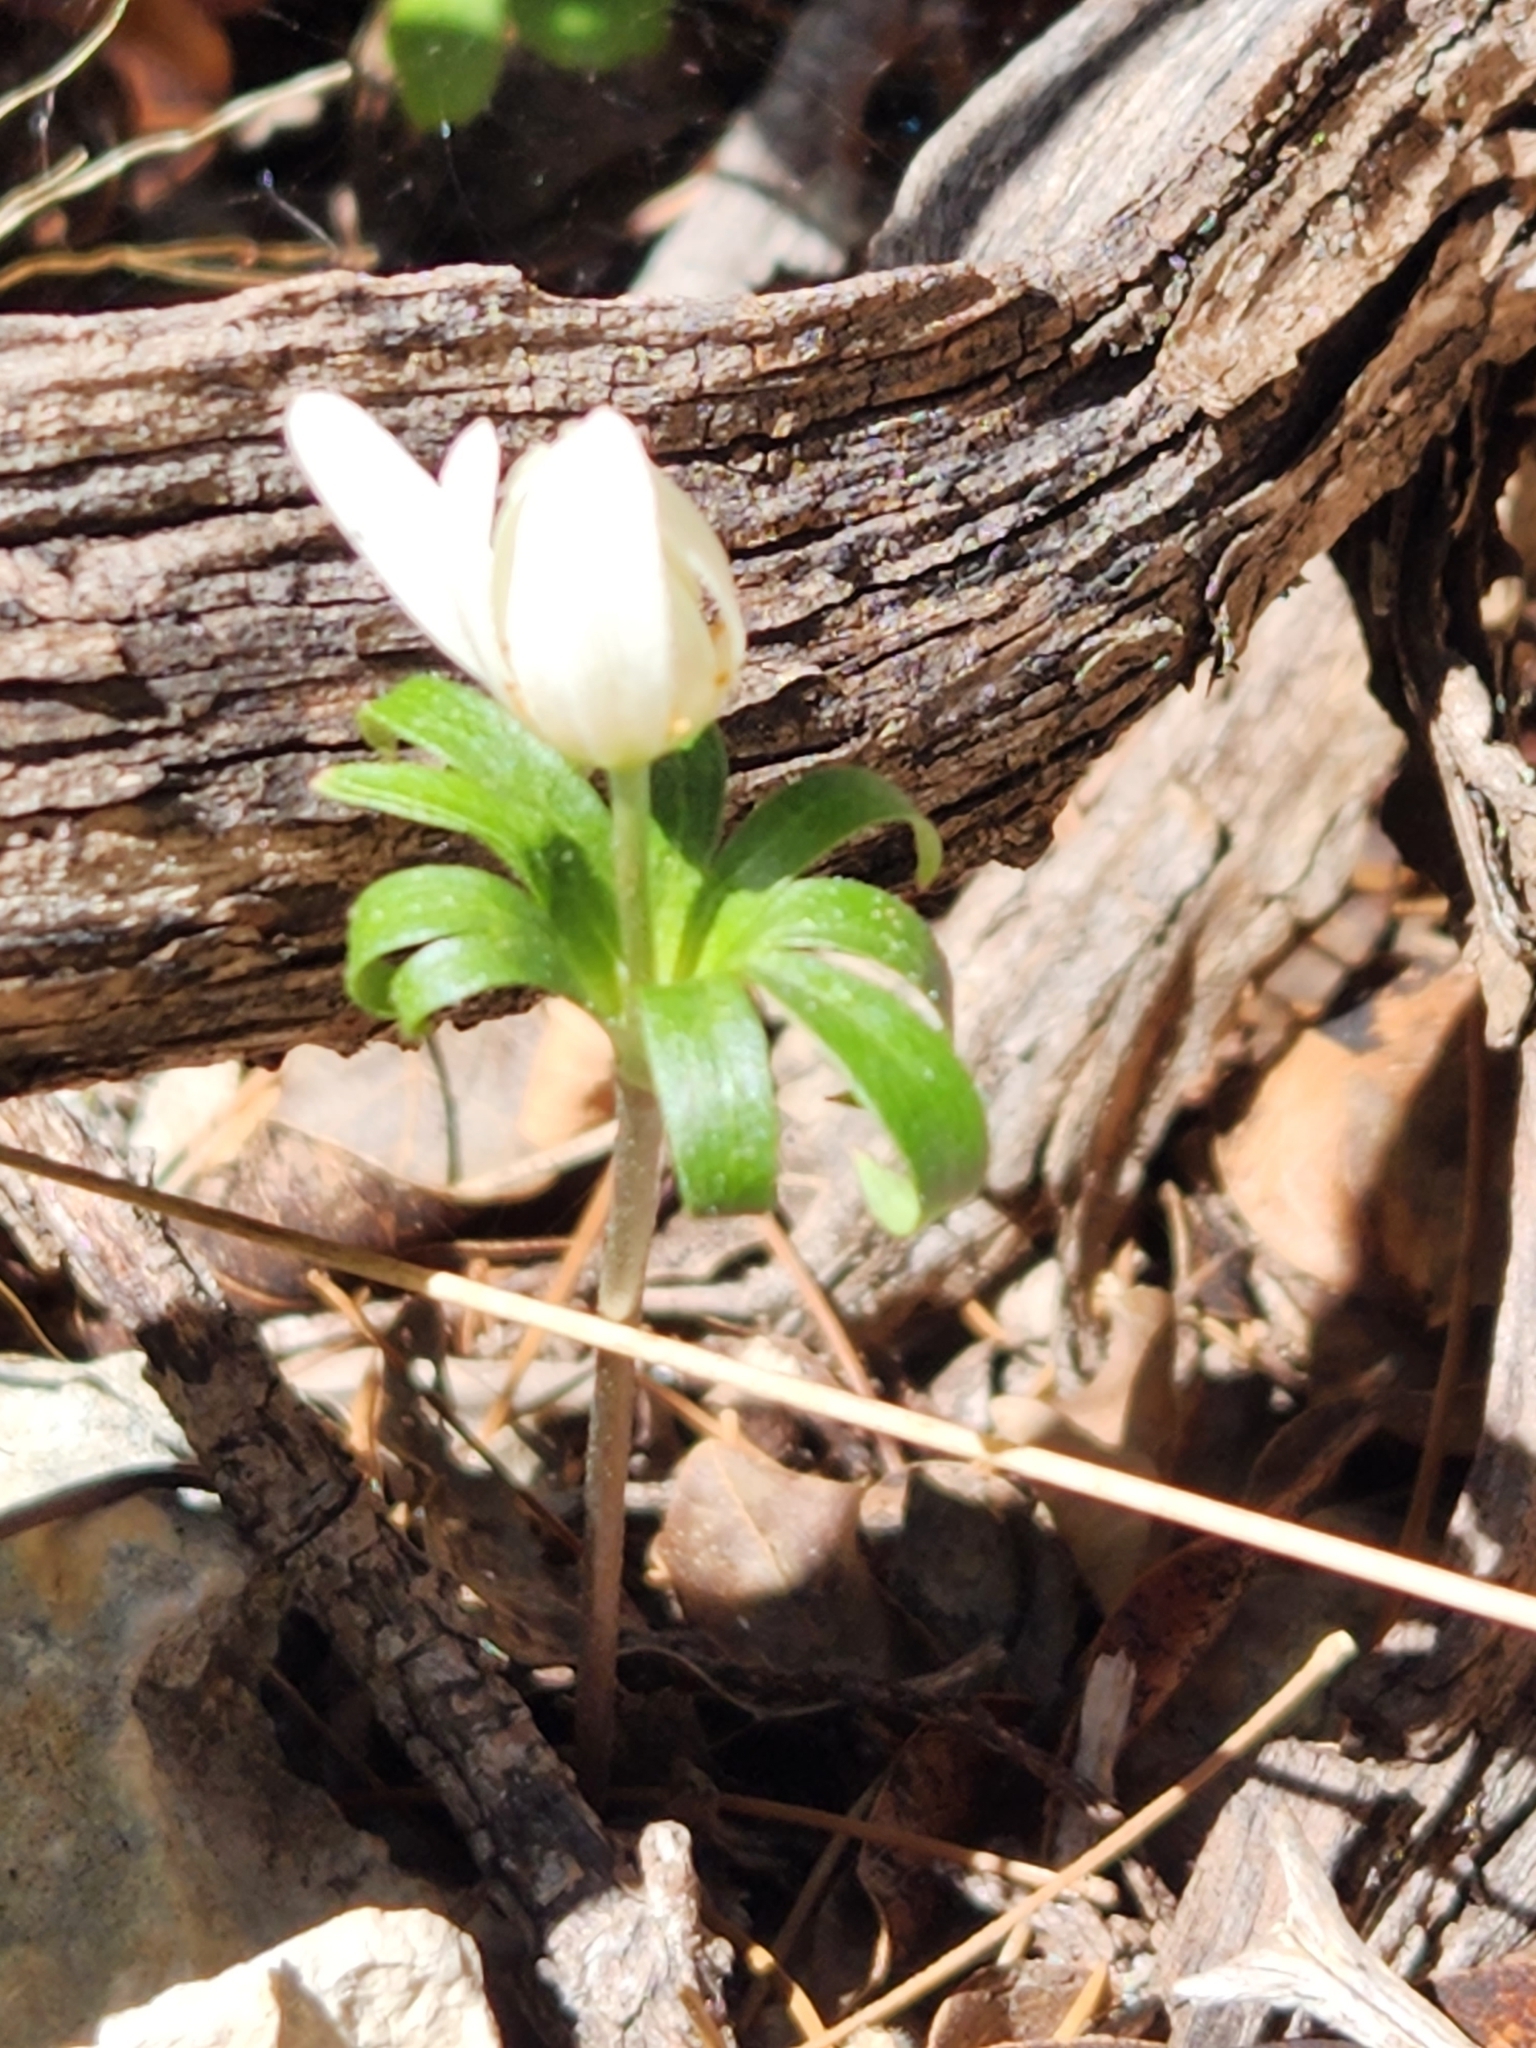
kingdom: Plantae
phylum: Tracheophyta
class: Magnoliopsida
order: Ranunculales
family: Ranunculaceae
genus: Anemone
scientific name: Anemone edwardsiana
